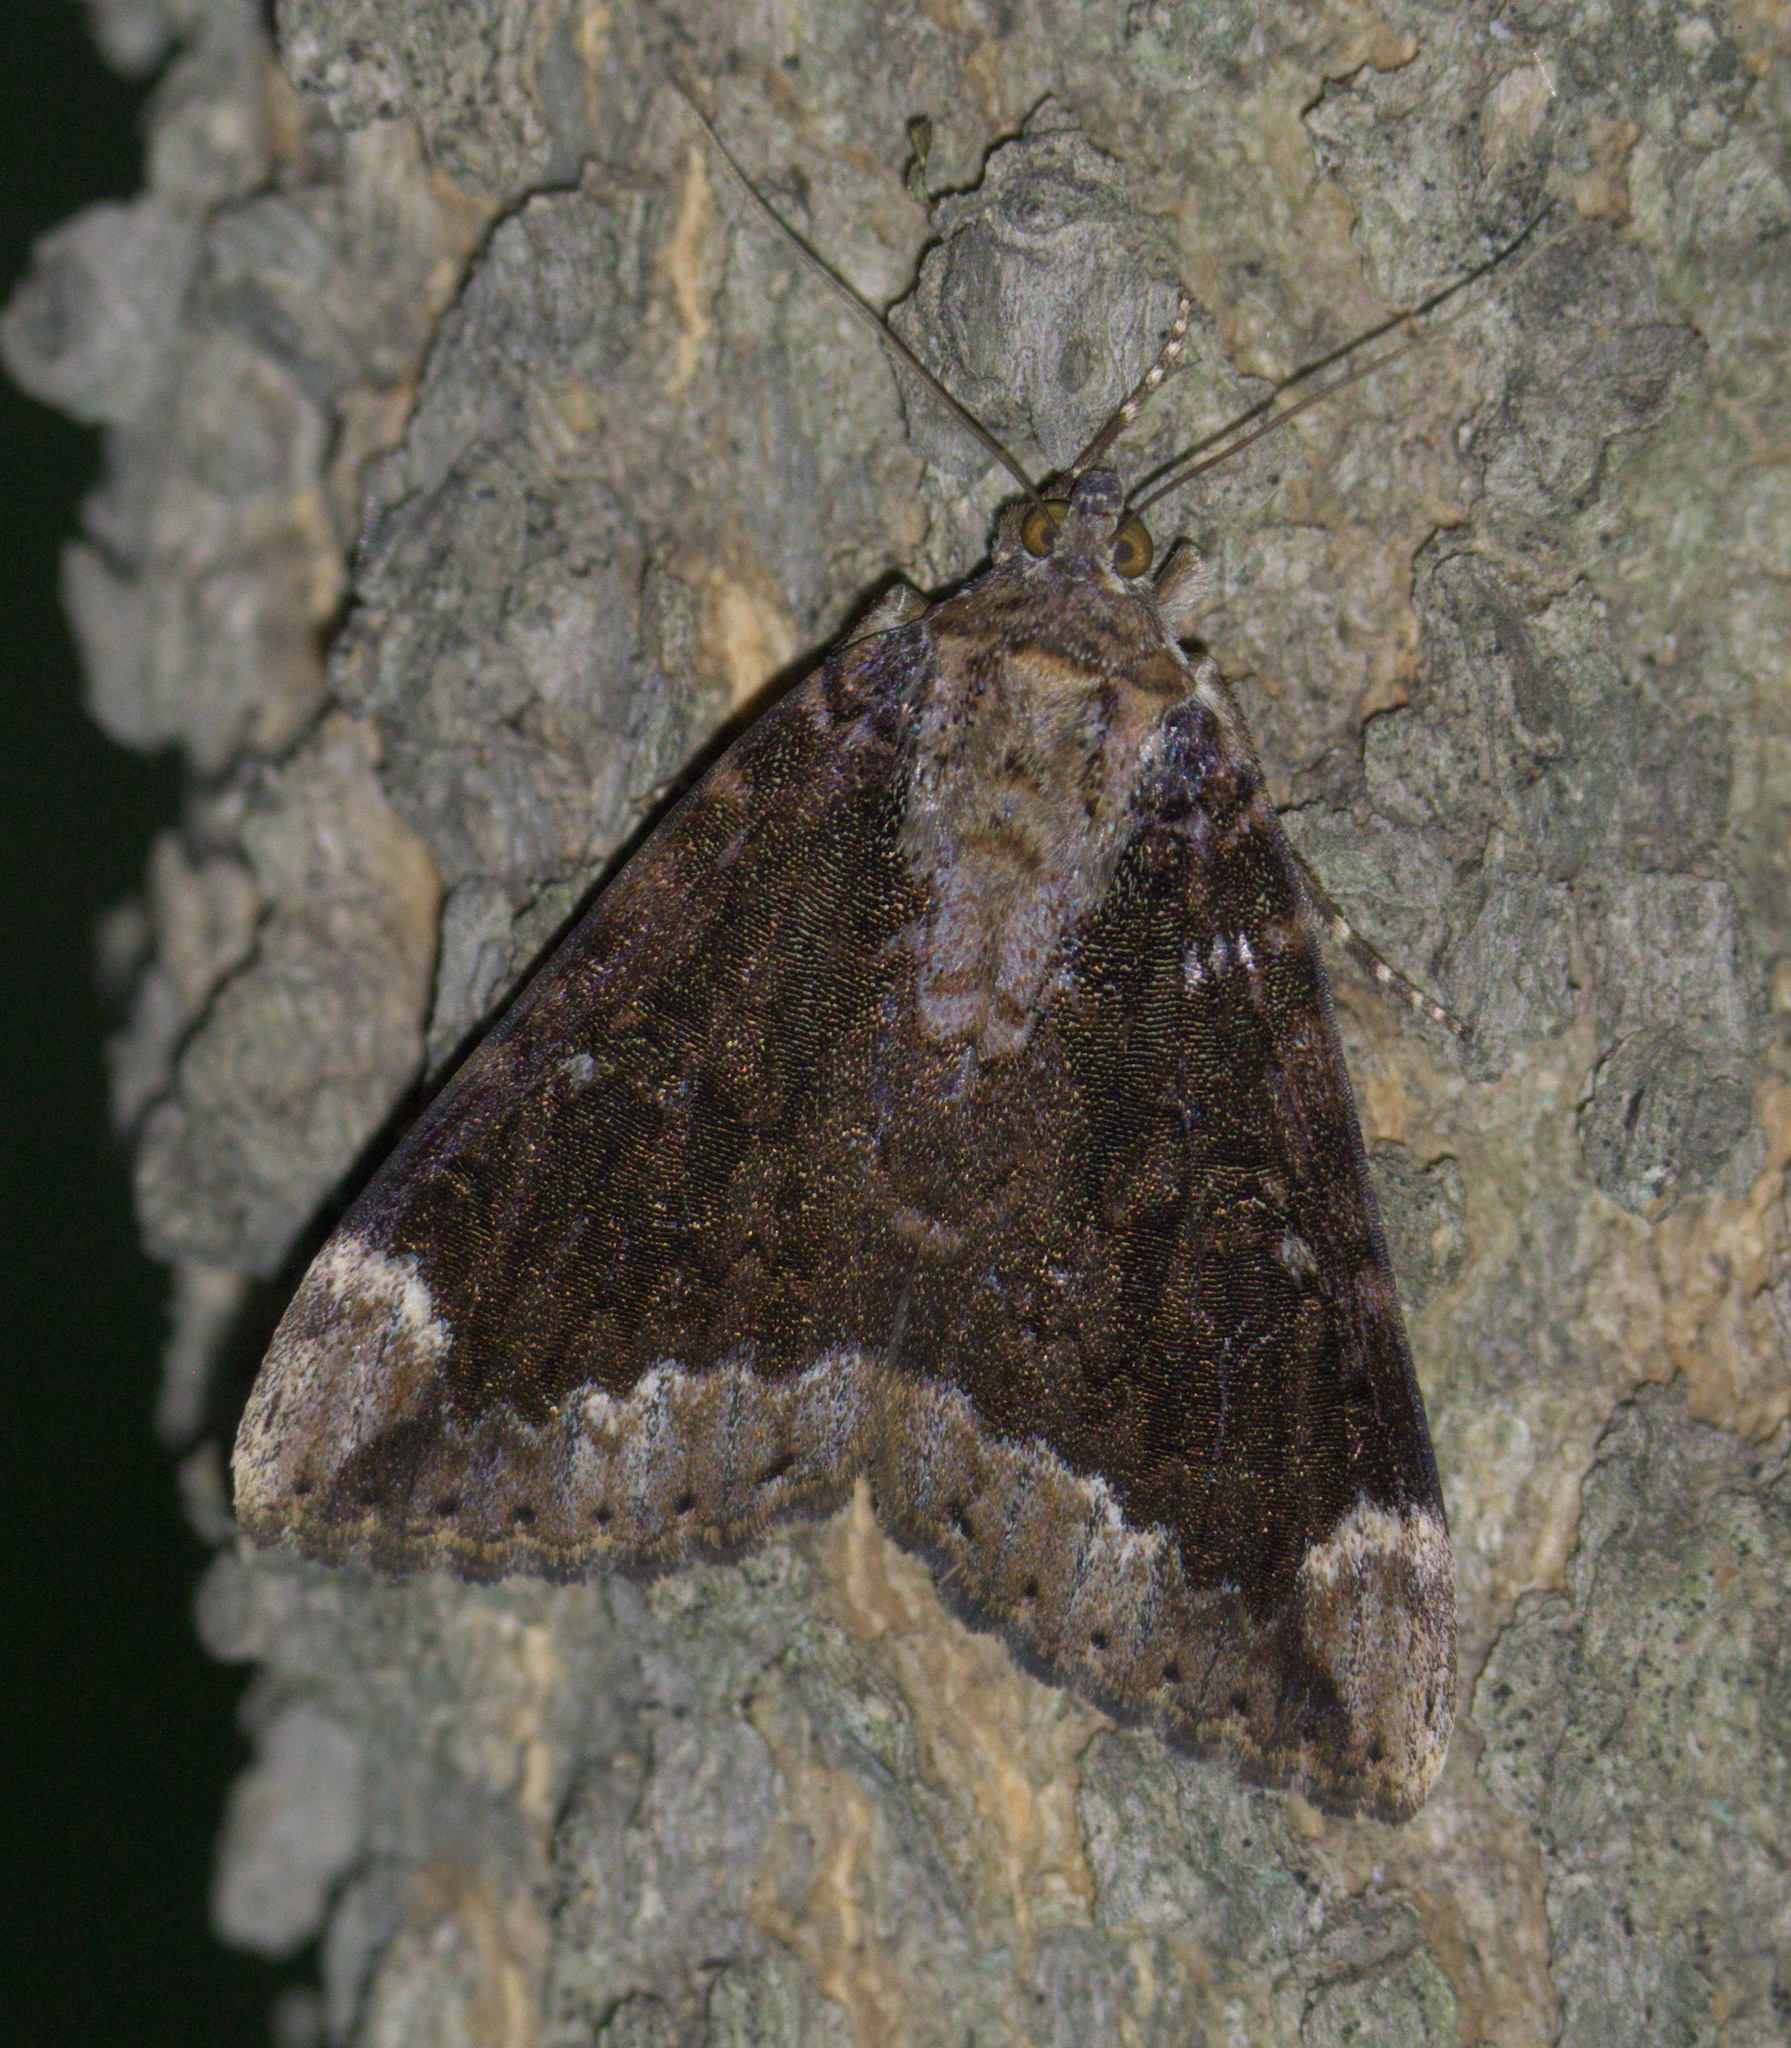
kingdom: Animalia
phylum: Arthropoda
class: Insecta
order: Lepidoptera
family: Erebidae
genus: Catocala
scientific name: Catocala innubens
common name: Betrothed underwing
